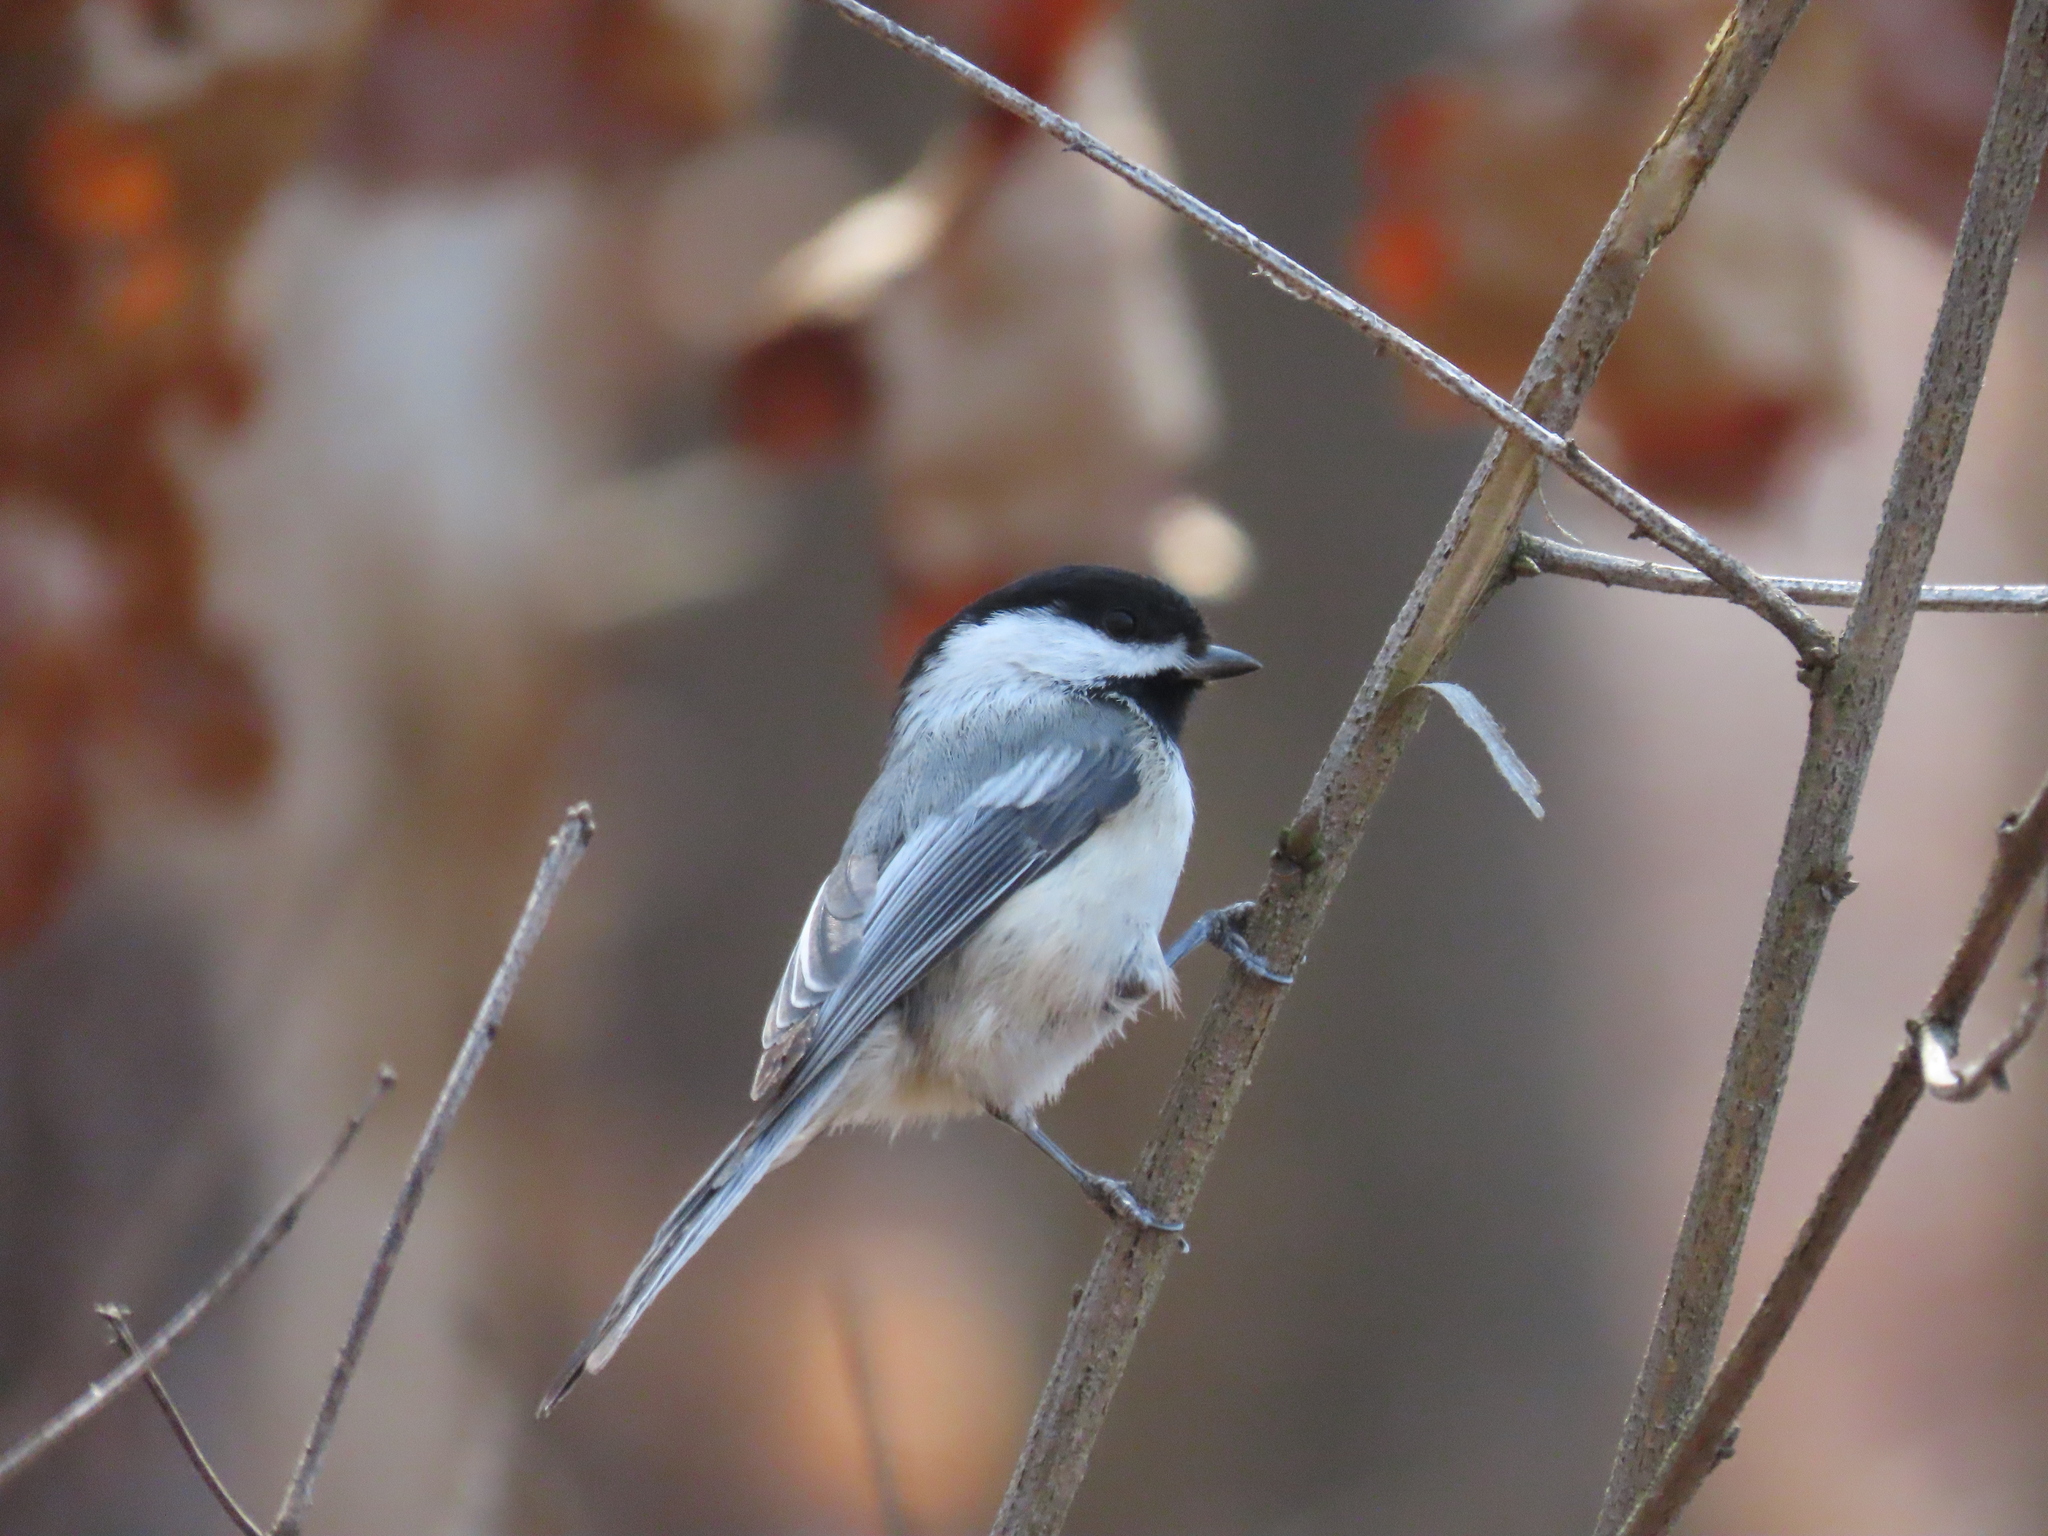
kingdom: Animalia
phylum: Chordata
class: Aves
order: Passeriformes
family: Paridae
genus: Poecile
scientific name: Poecile atricapillus
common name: Black-capped chickadee
